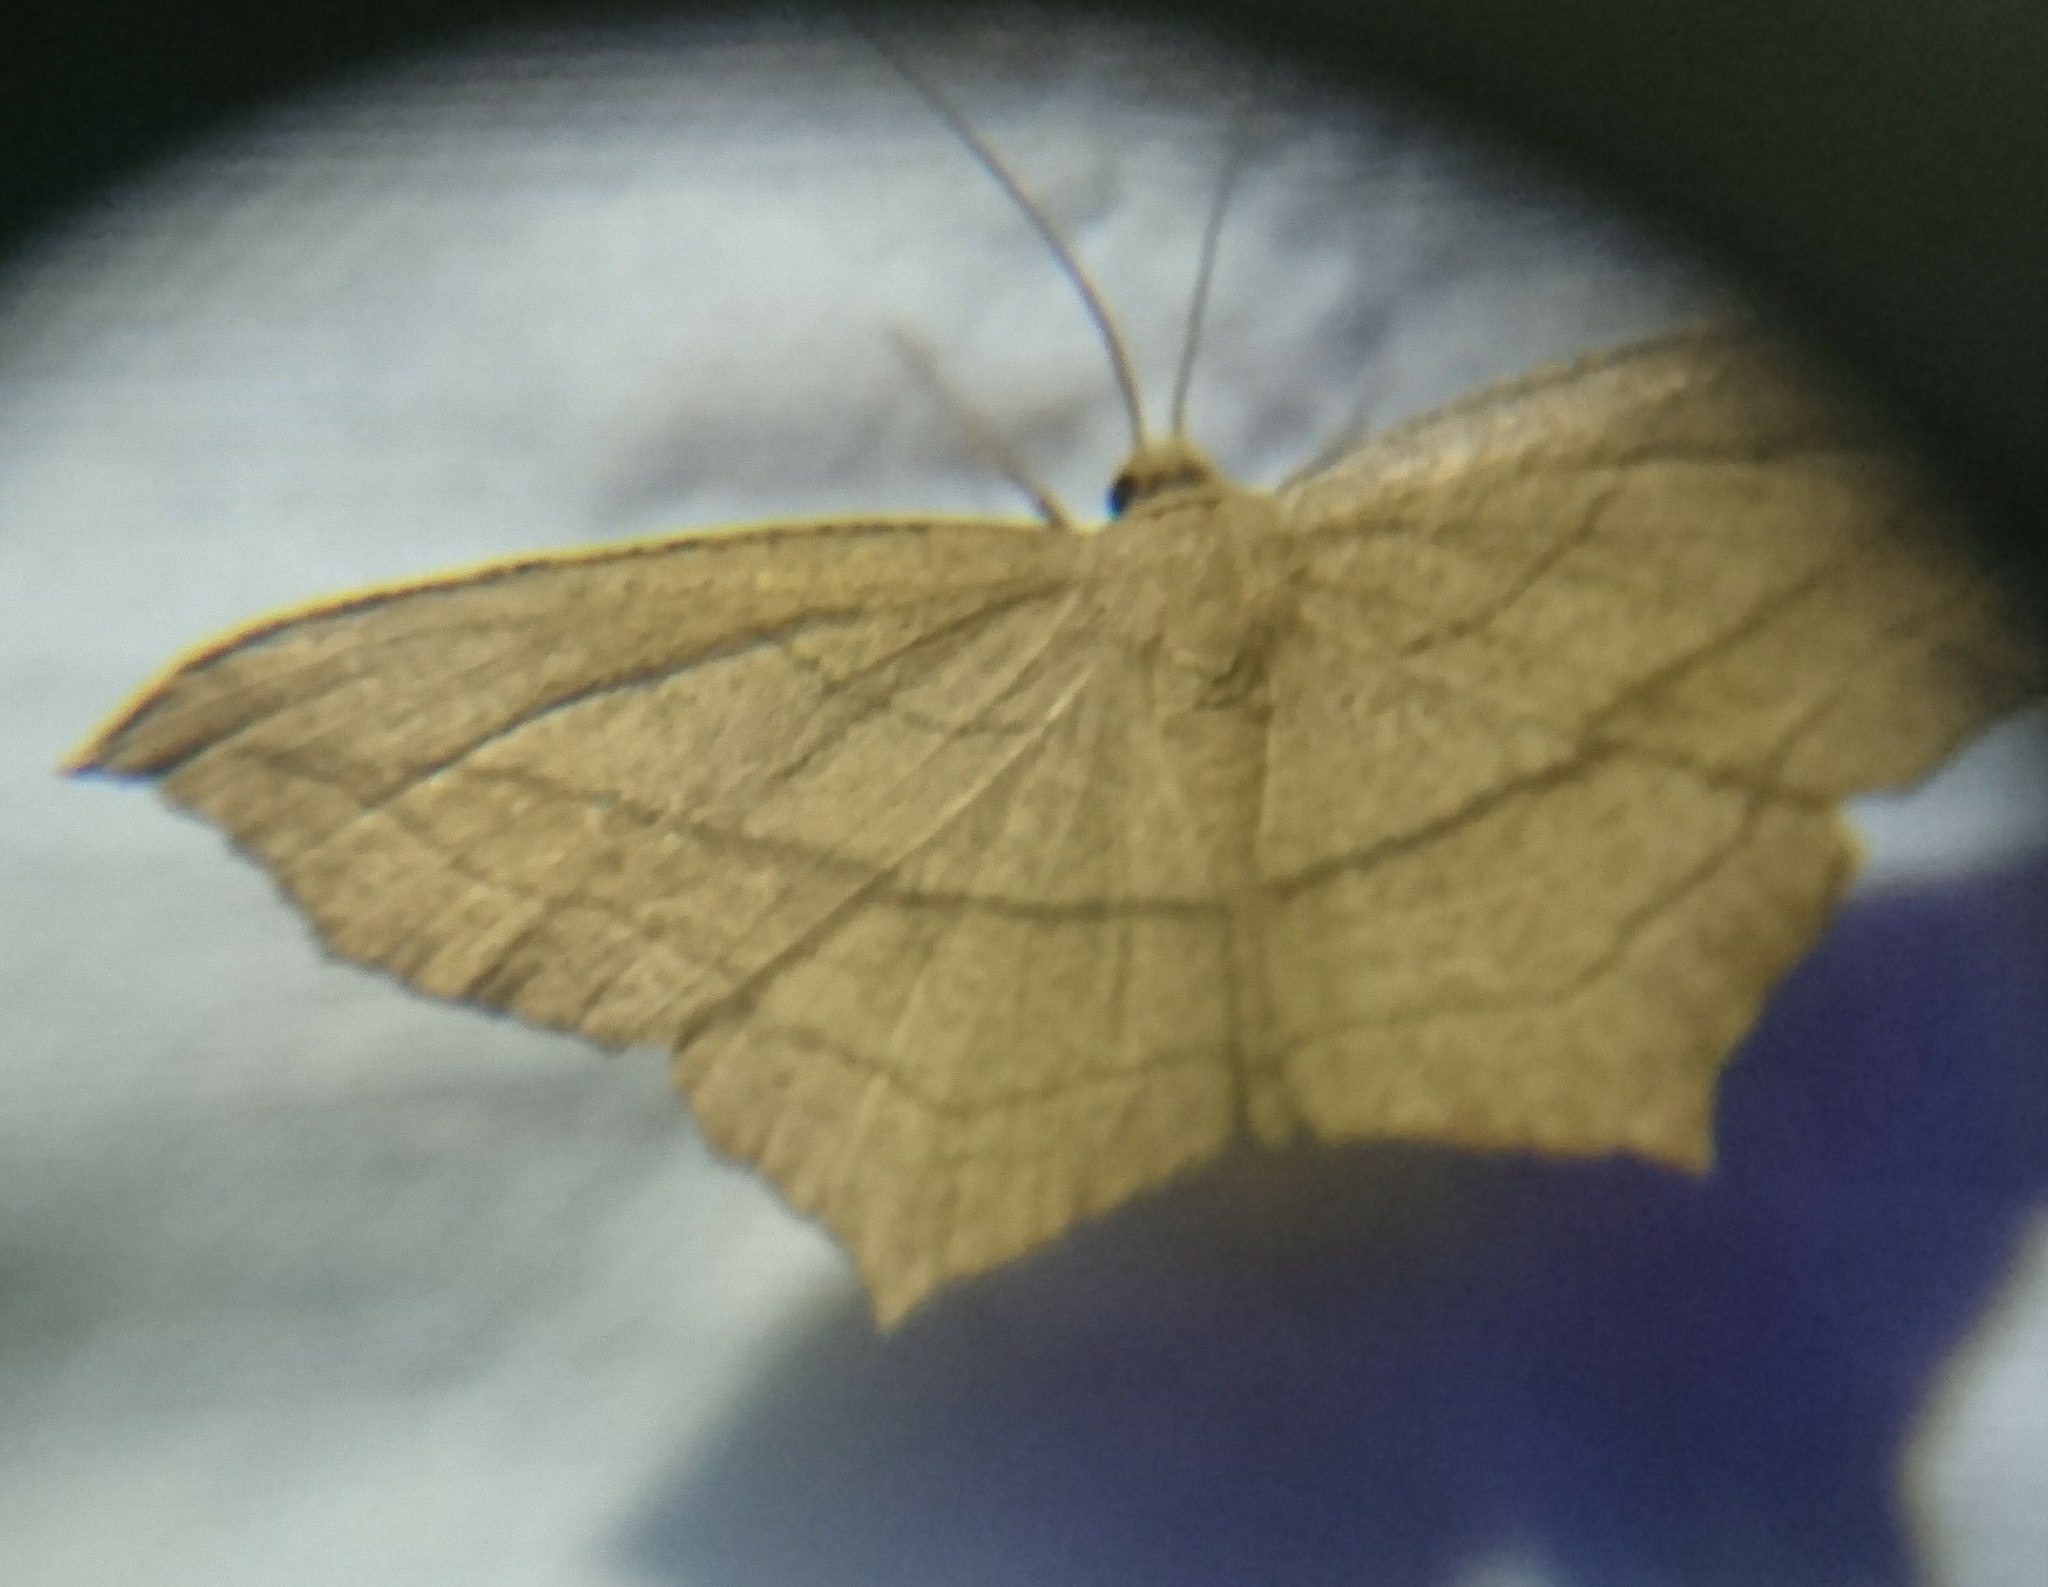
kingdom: Animalia
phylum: Arthropoda
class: Insecta
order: Lepidoptera
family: Geometridae
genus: Timandra
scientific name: Timandra amaturaria
